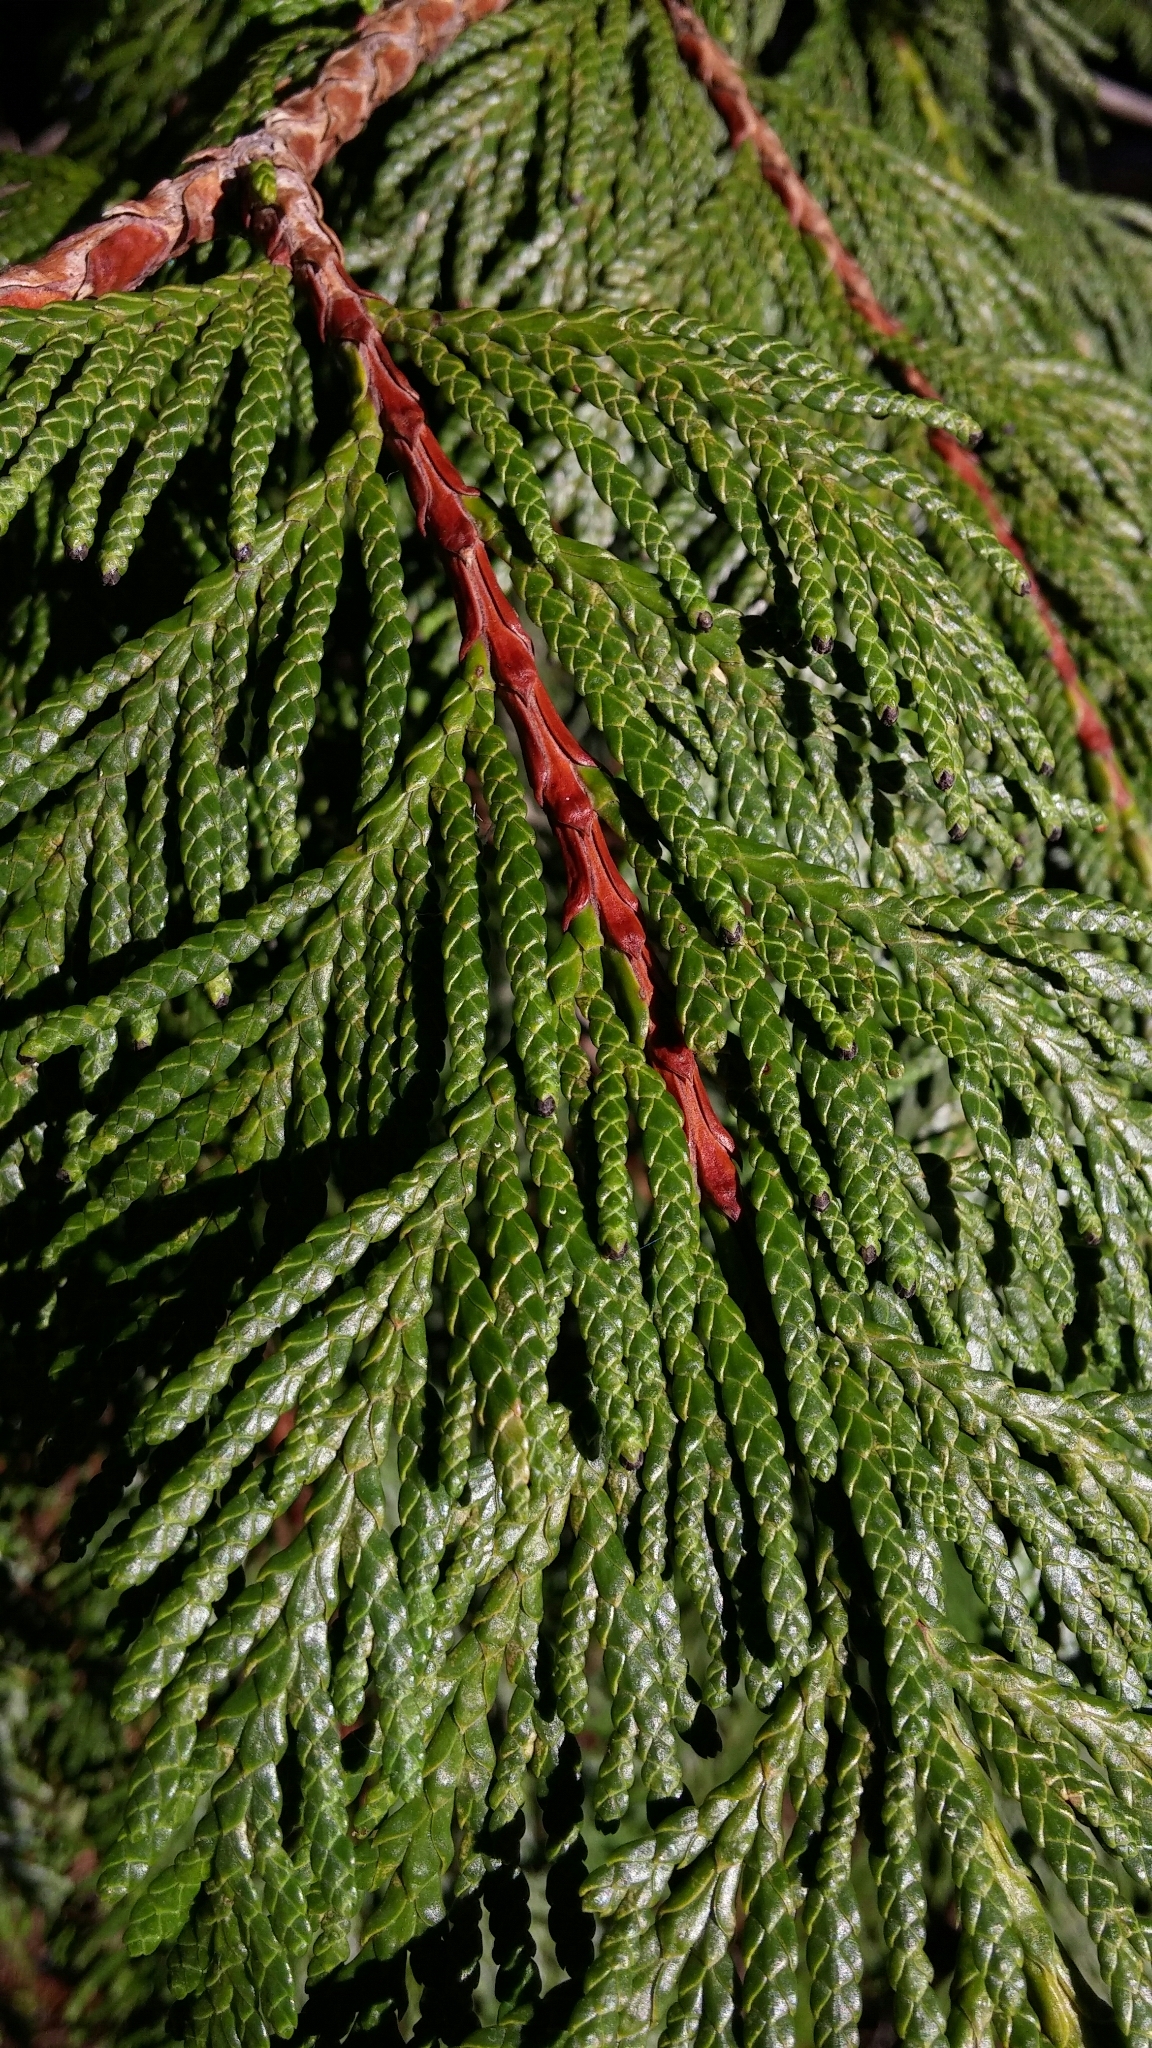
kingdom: Plantae
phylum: Tracheophyta
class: Pinopsida
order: Pinales
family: Cupressaceae
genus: Thuja
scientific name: Thuja plicata
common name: Western red-cedar
